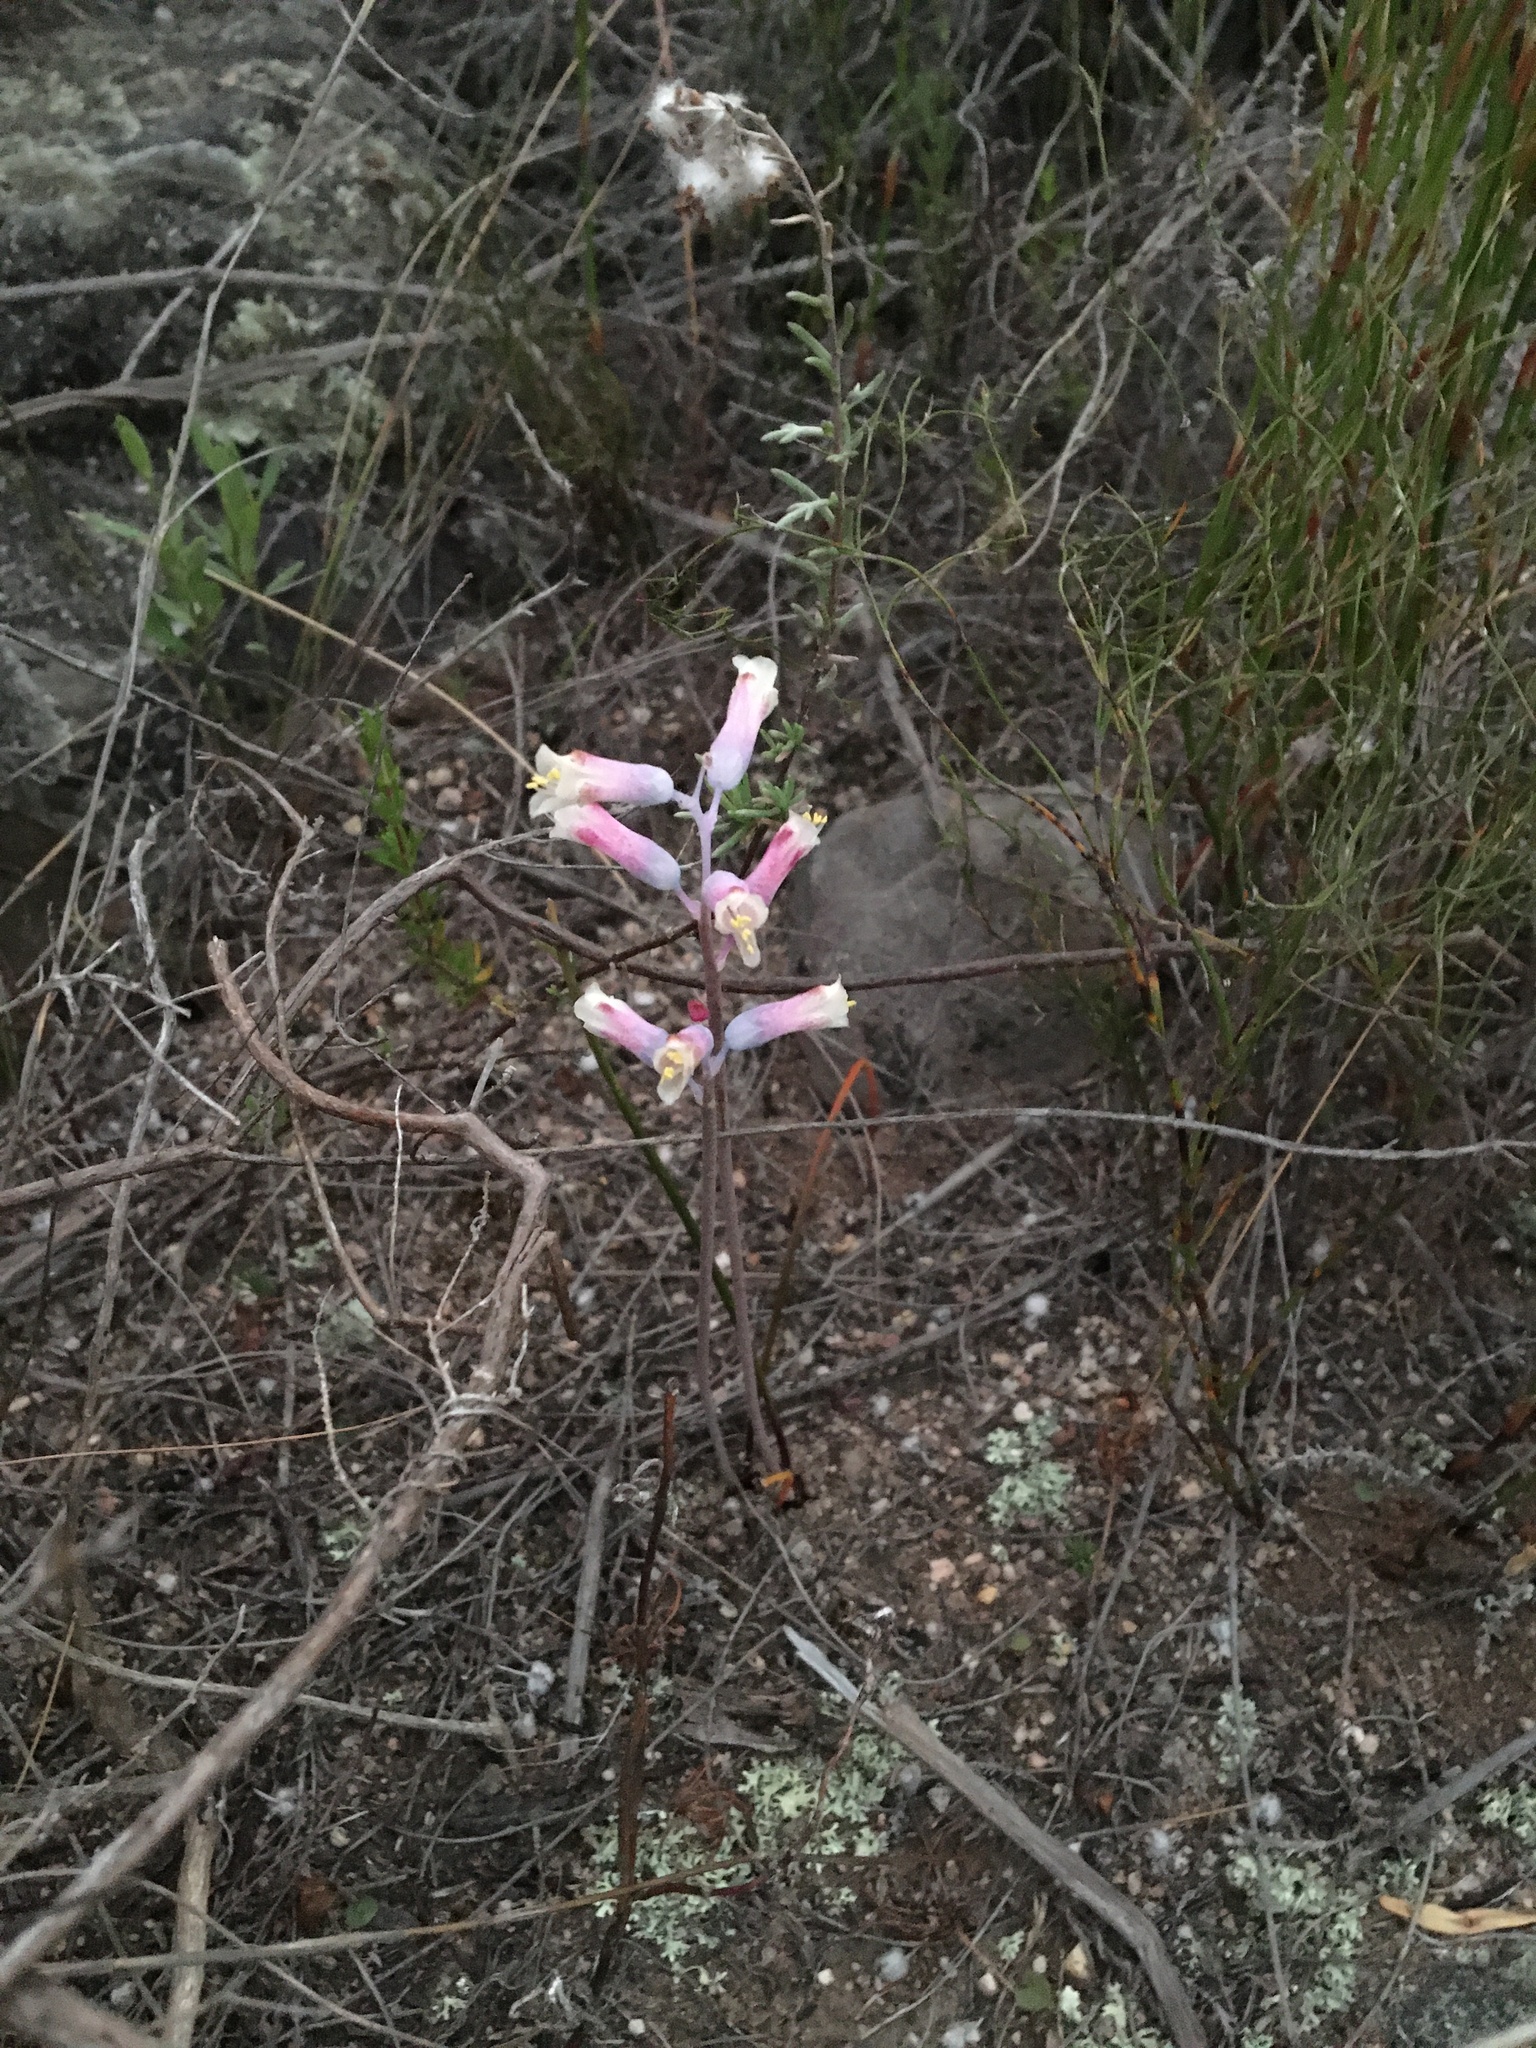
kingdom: Plantae
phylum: Tracheophyta
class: Liliopsida
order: Asparagales
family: Asparagaceae
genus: Lachenalia
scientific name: Lachenalia unifolia
